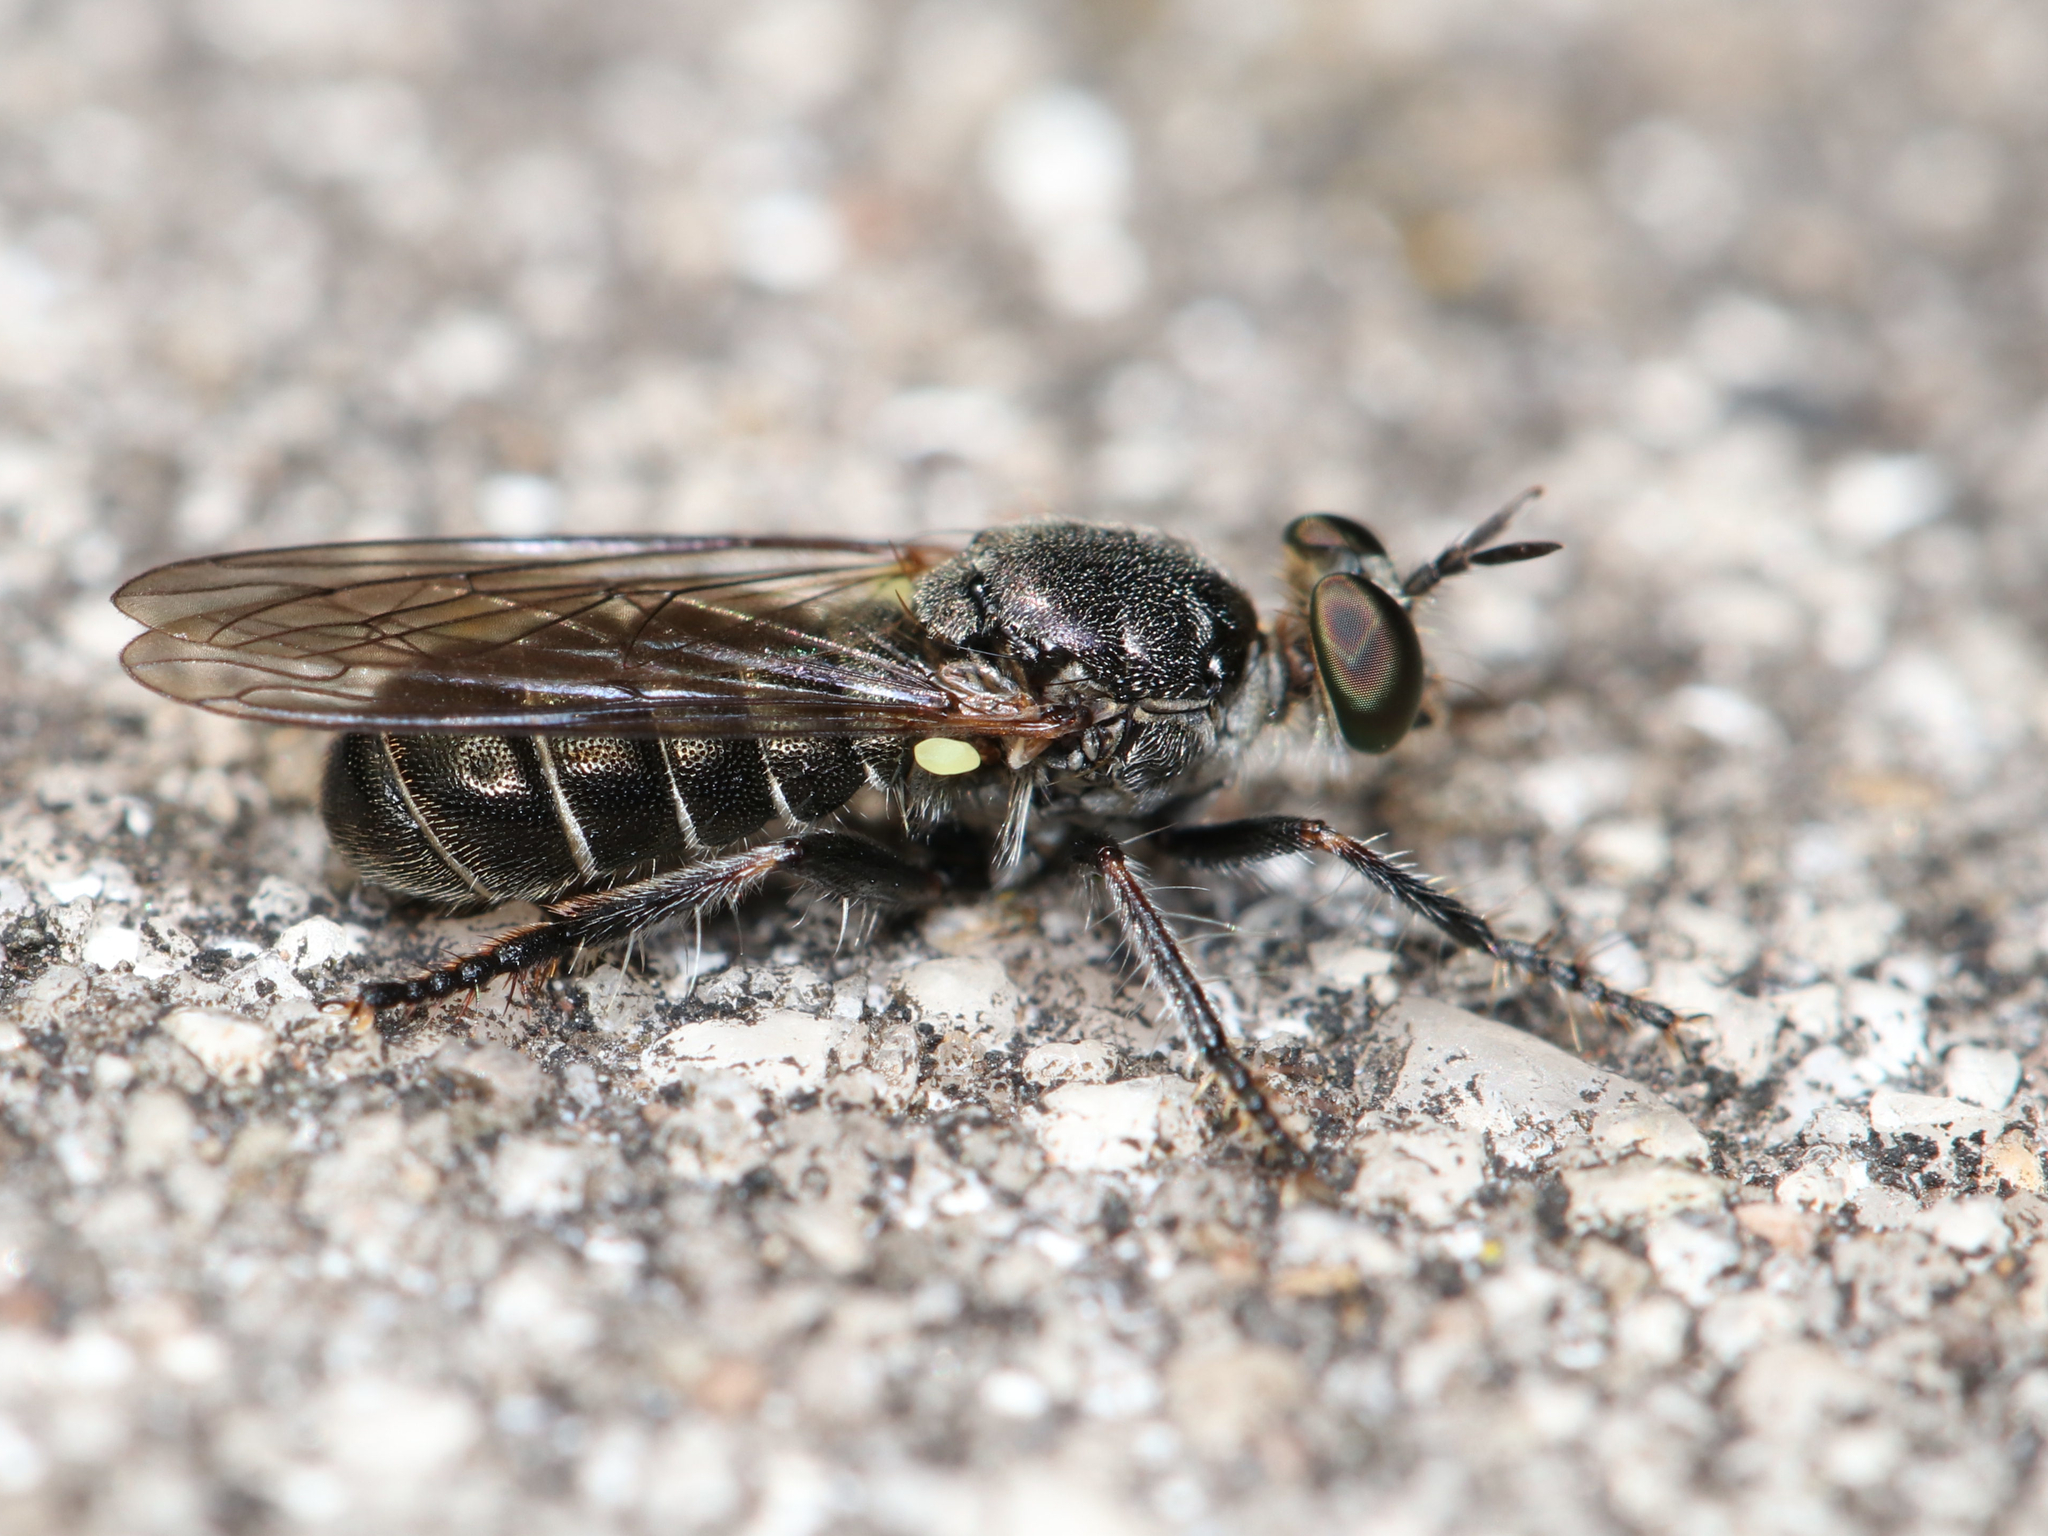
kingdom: Animalia
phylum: Arthropoda
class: Insecta
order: Diptera
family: Asilidae
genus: Atomosia
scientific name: Atomosia puella
